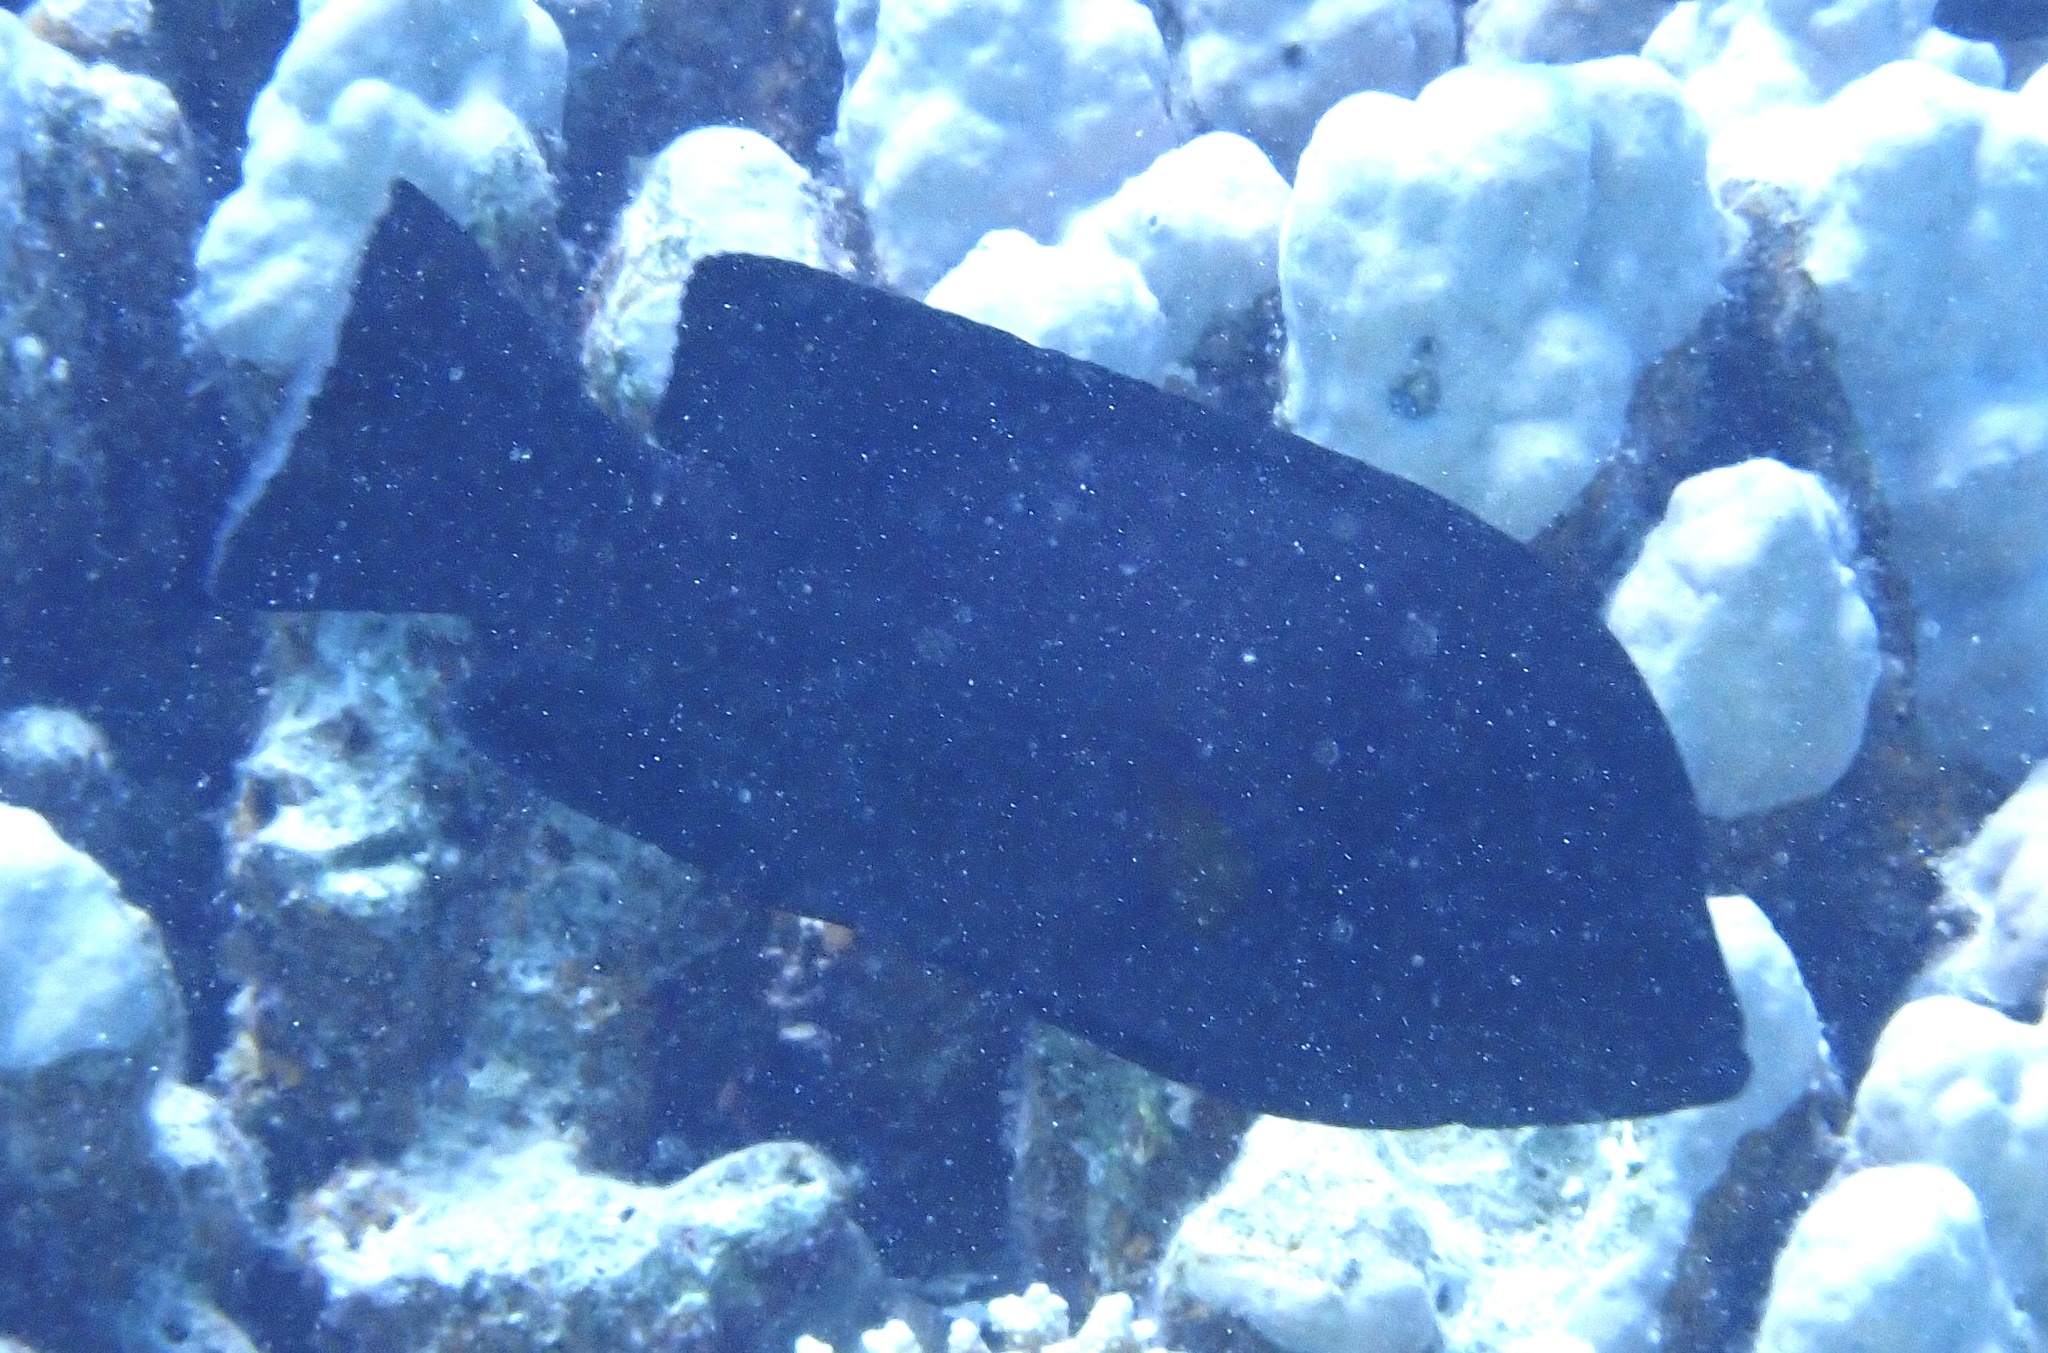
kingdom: Animalia
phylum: Chordata
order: Perciformes
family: Serranidae
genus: Aethaloperca
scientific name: Aethaloperca rogaa
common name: Redmouth grouper
